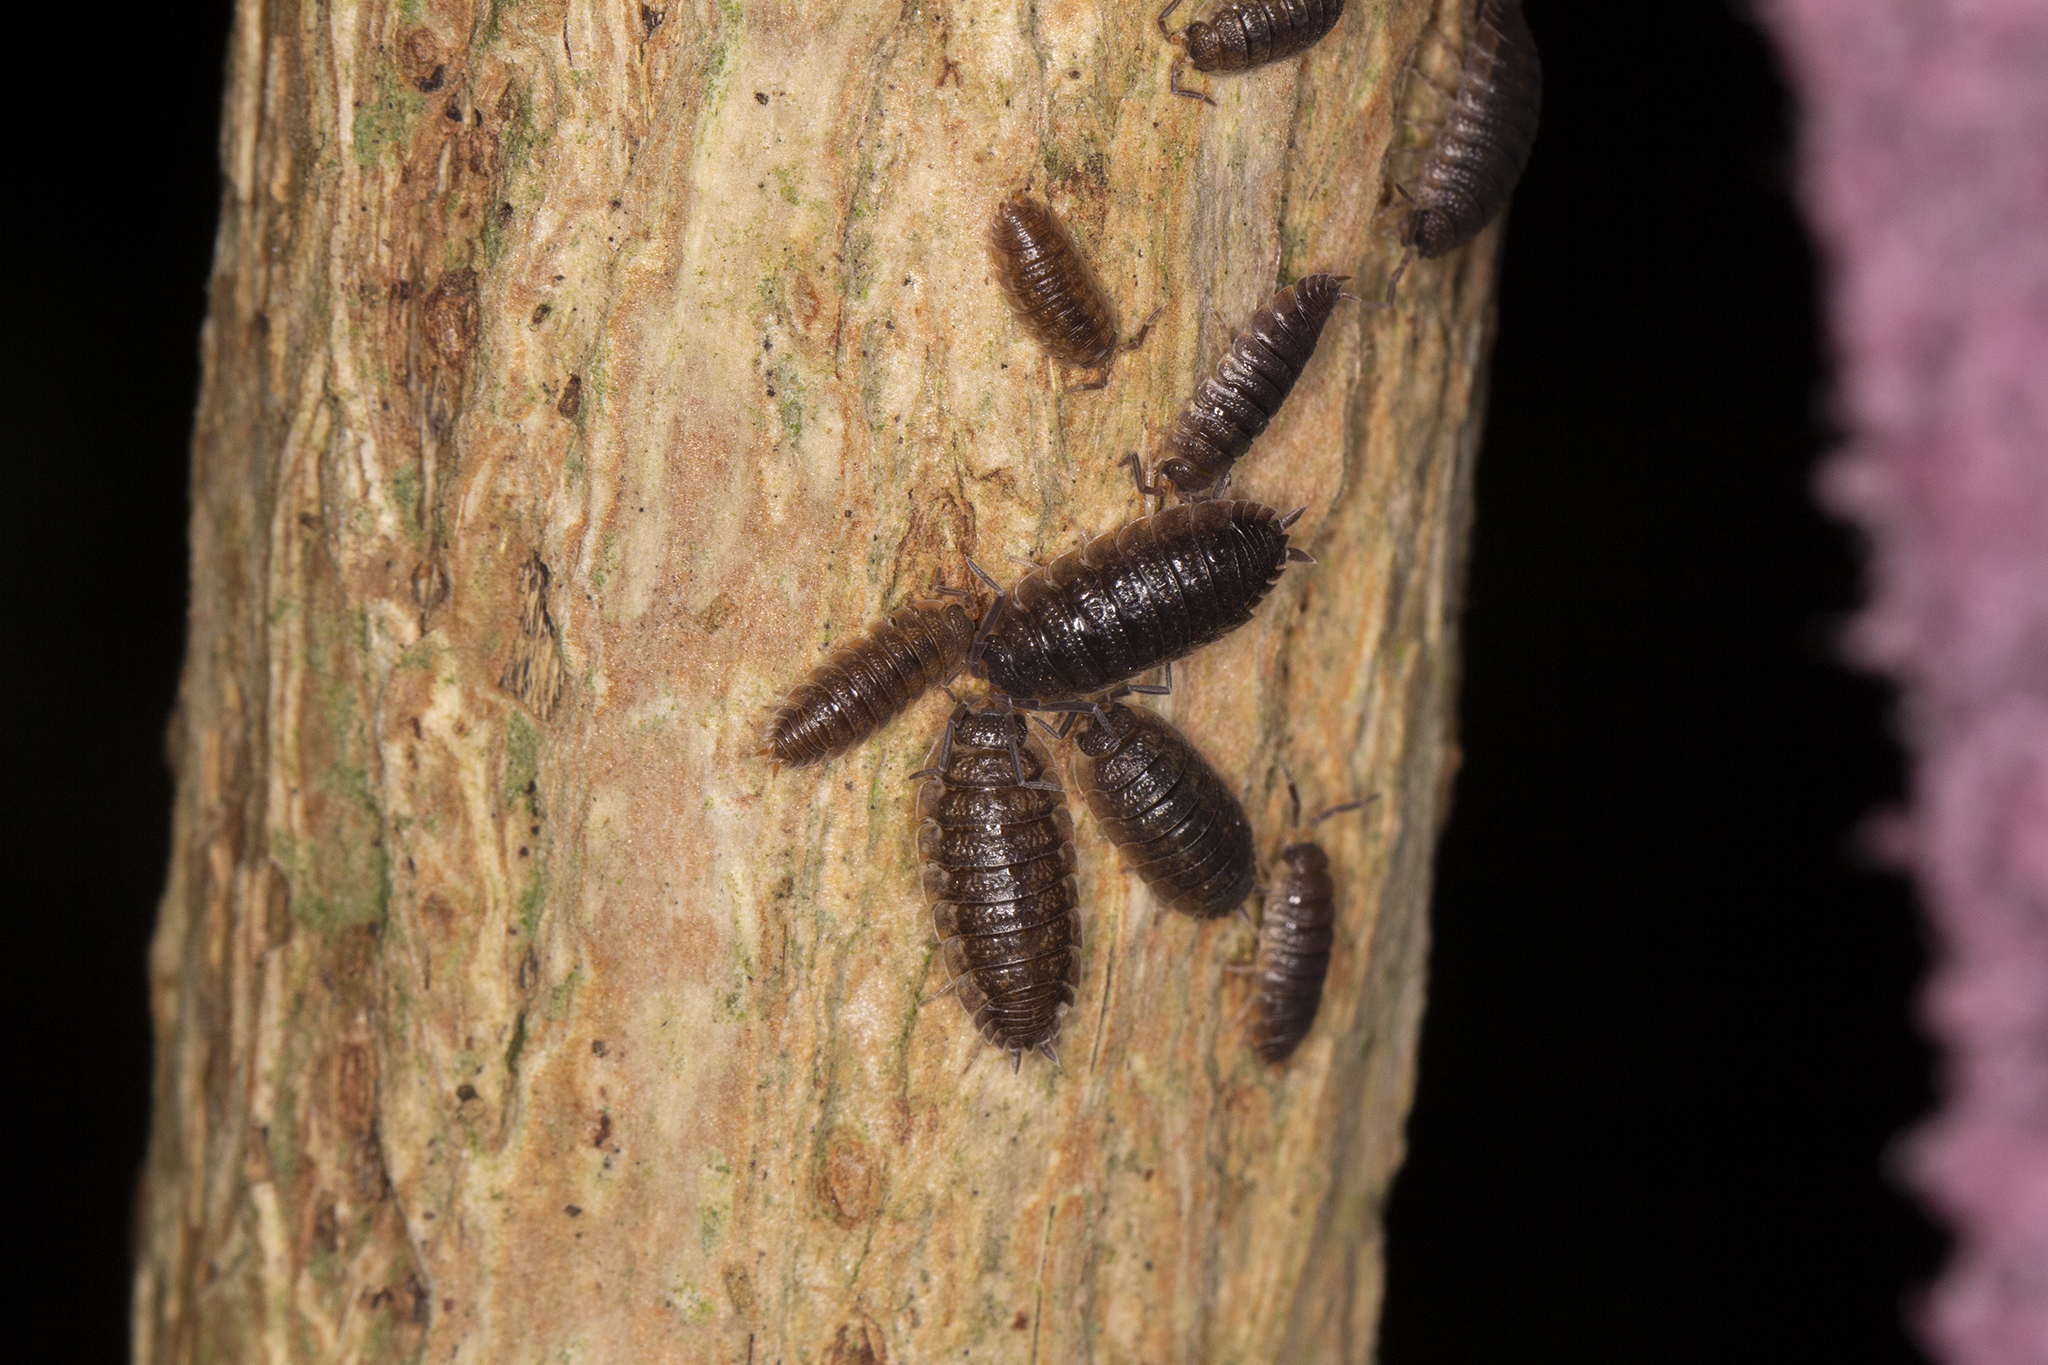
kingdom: Animalia
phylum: Arthropoda
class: Malacostraca
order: Isopoda
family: Porcellionidae
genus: Porcellio
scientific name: Porcellio scaber
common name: Common rough woodlouse
